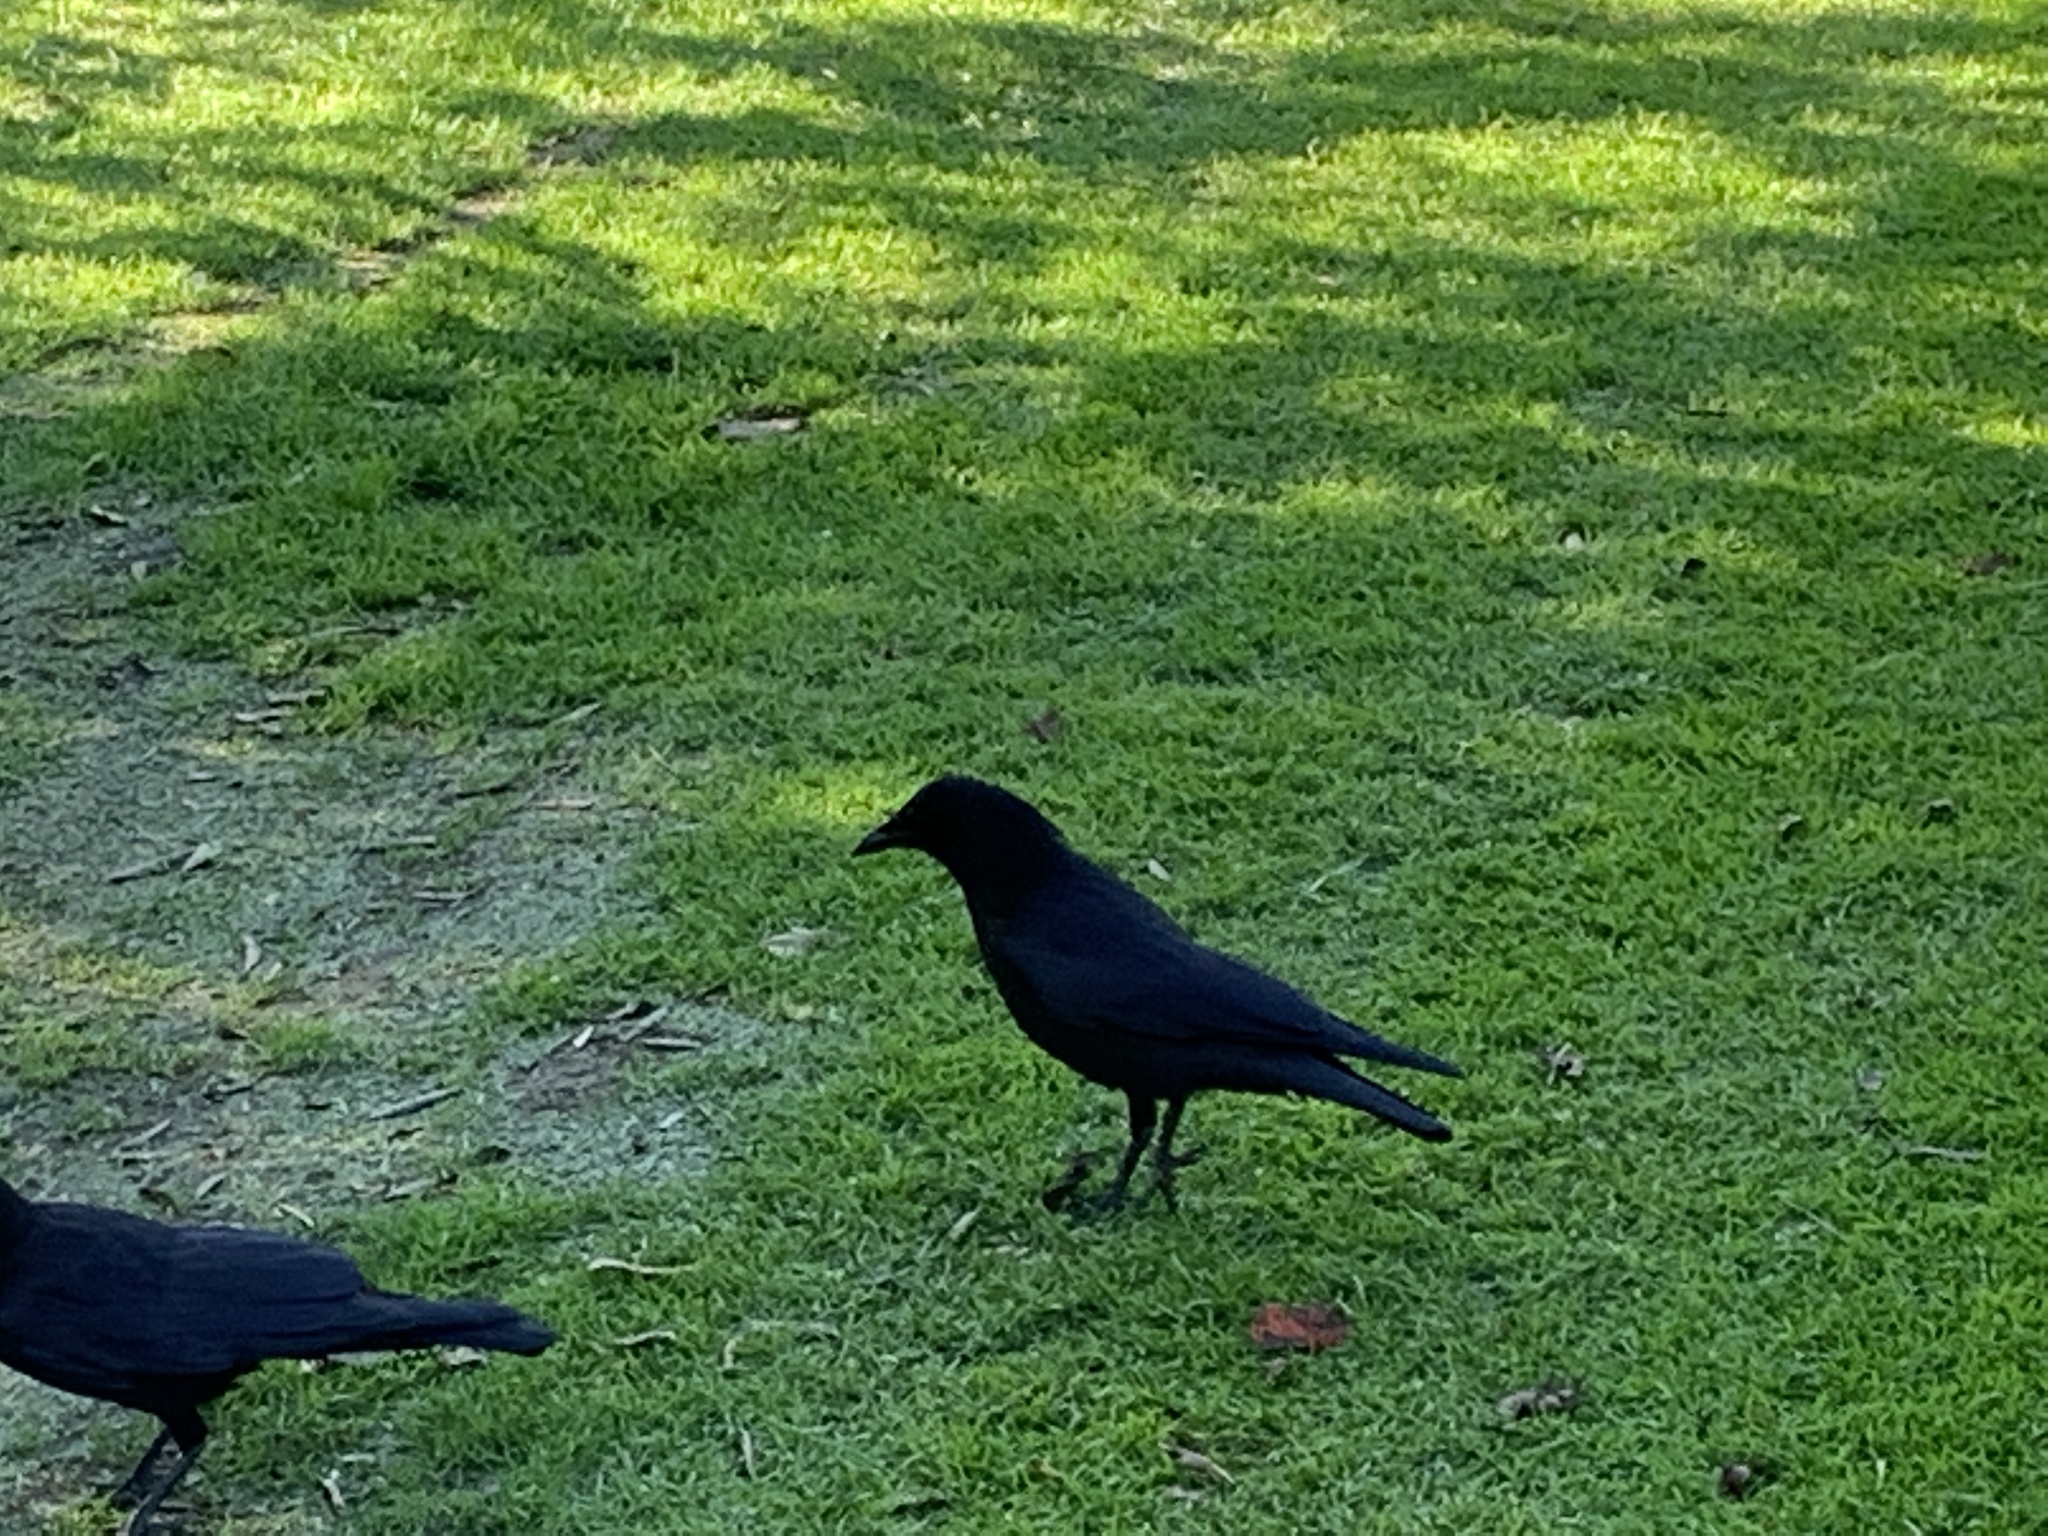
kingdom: Animalia
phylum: Chordata
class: Aves
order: Passeriformes
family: Corvidae
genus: Corvus
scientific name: Corvus brachyrhynchos
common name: American crow
